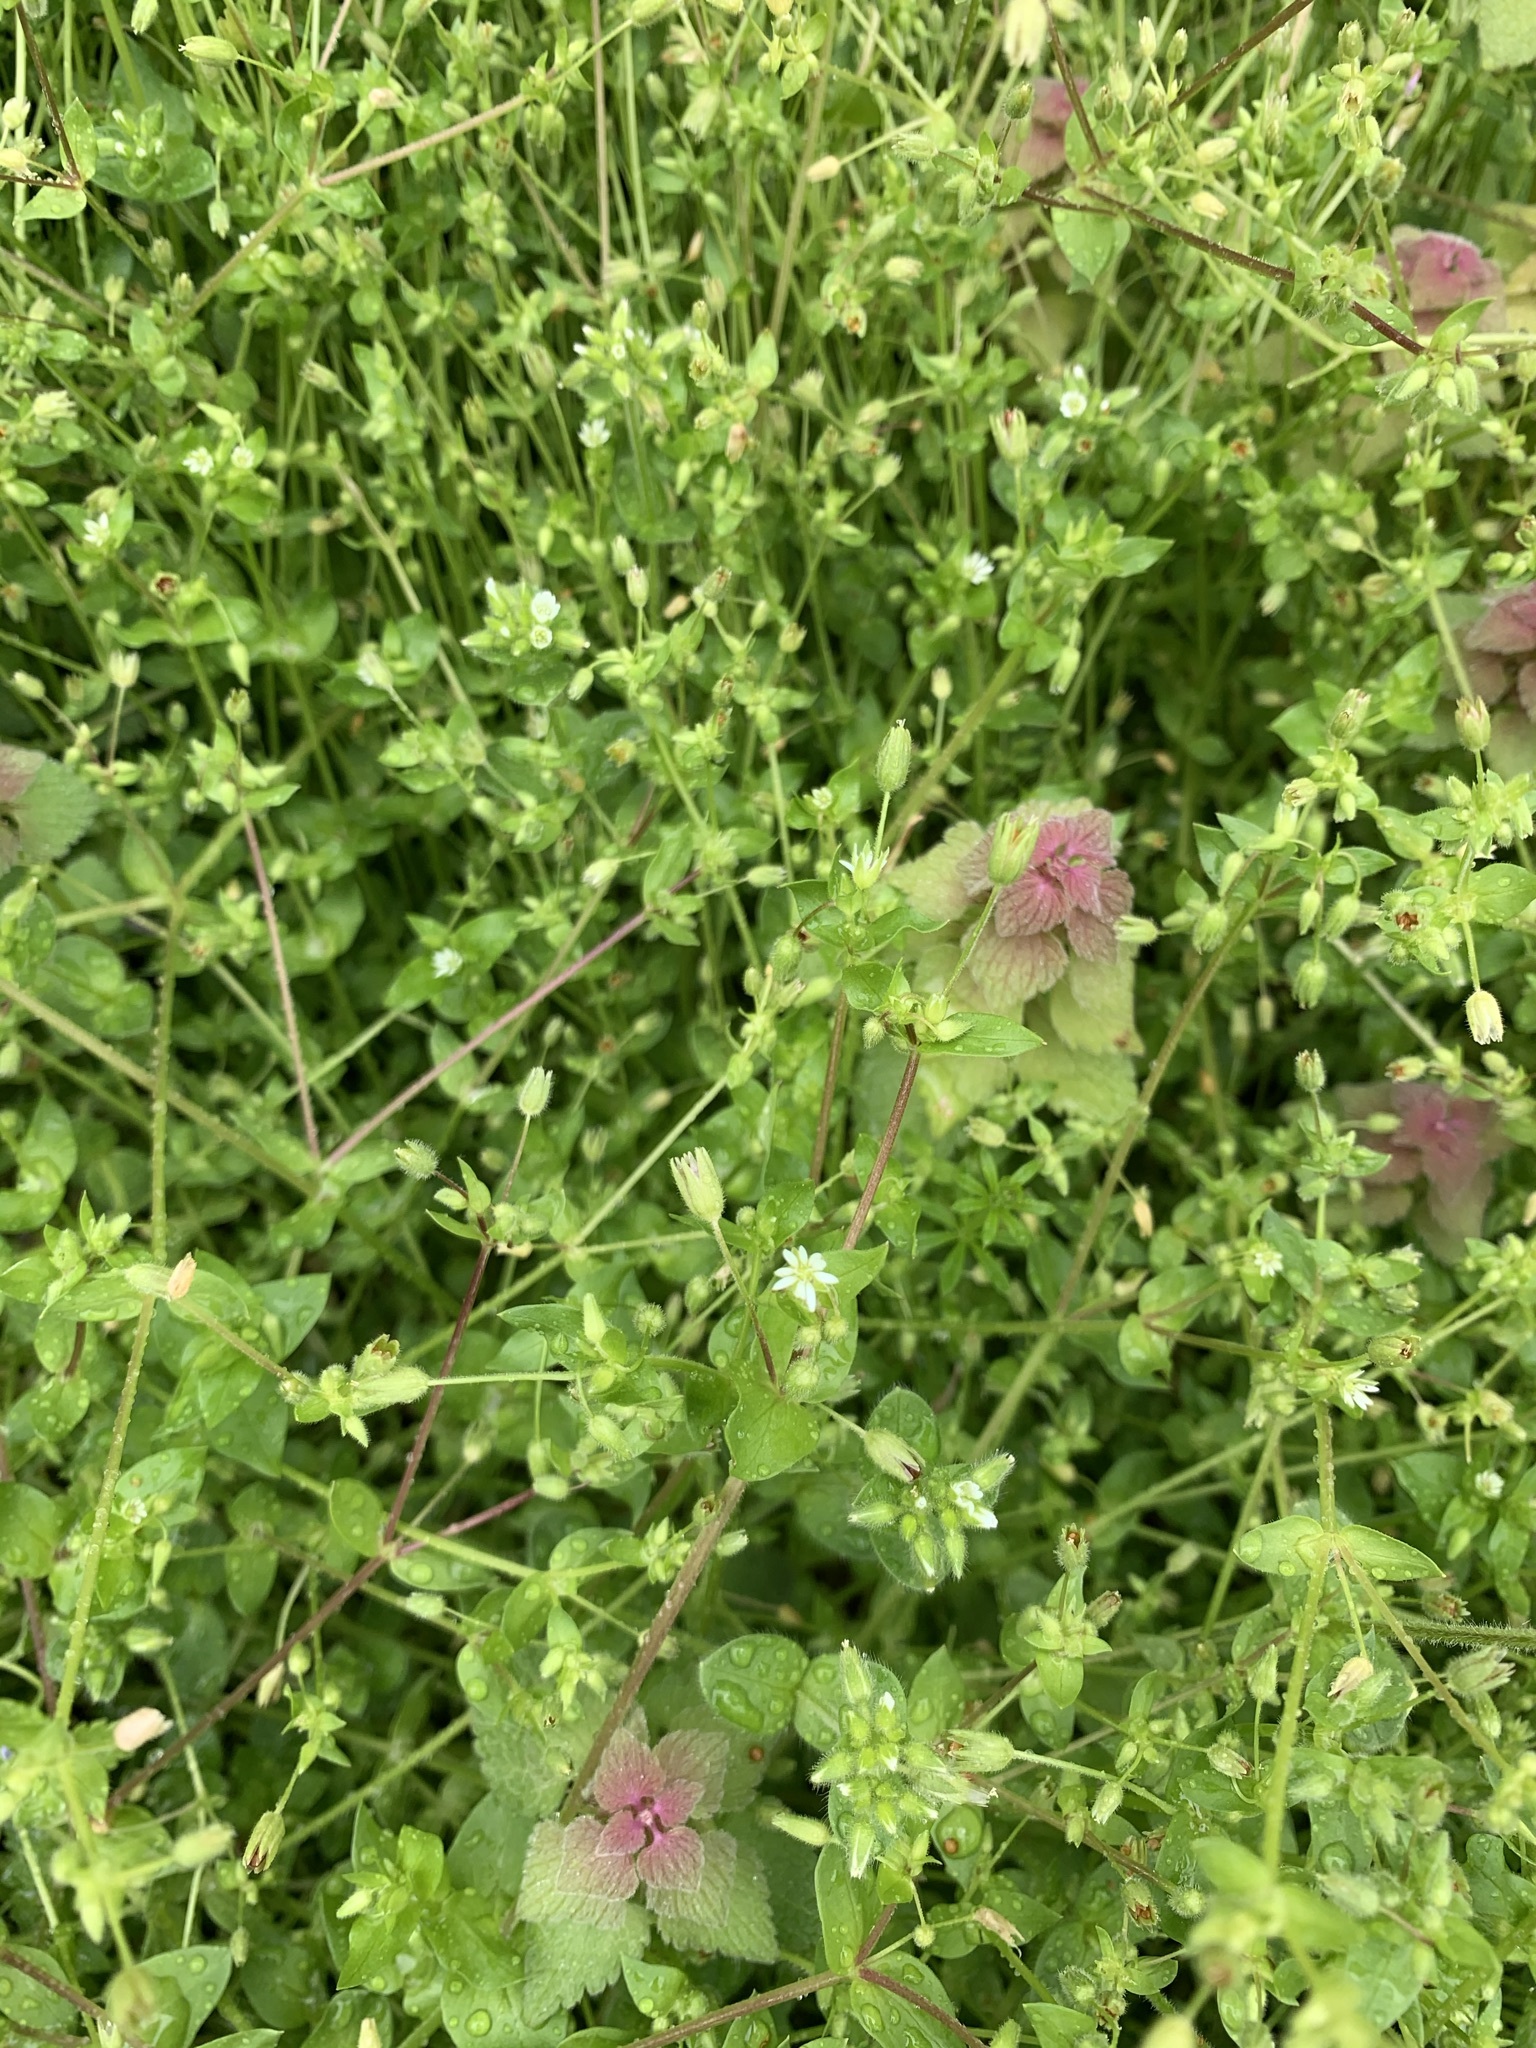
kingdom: Plantae
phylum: Tracheophyta
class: Magnoliopsida
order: Caryophyllales
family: Caryophyllaceae
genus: Stellaria
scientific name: Stellaria media
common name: Common chickweed
